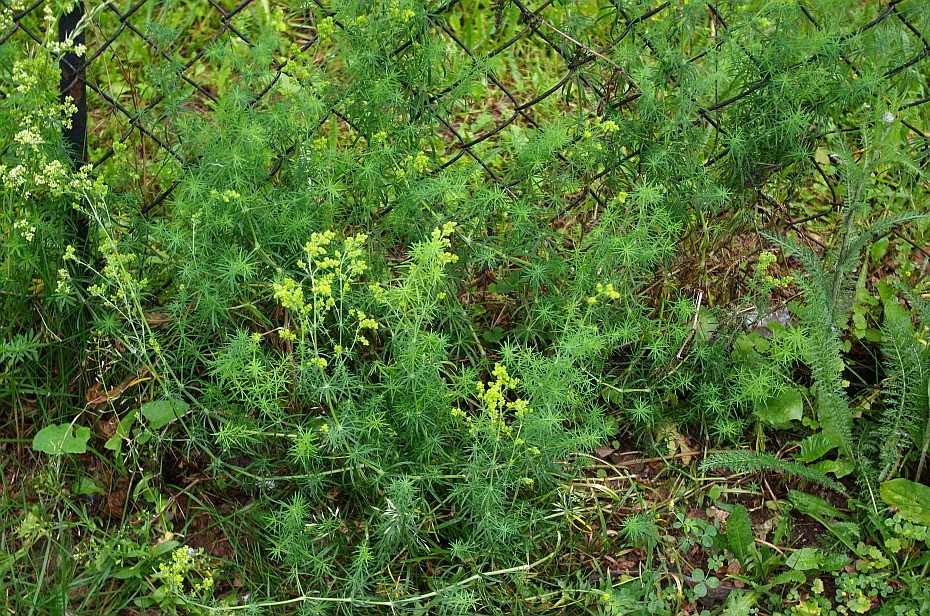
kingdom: Plantae
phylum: Tracheophyta
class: Magnoliopsida
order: Gentianales
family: Rubiaceae
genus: Galium
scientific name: Galium verum
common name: Lady's bedstraw
